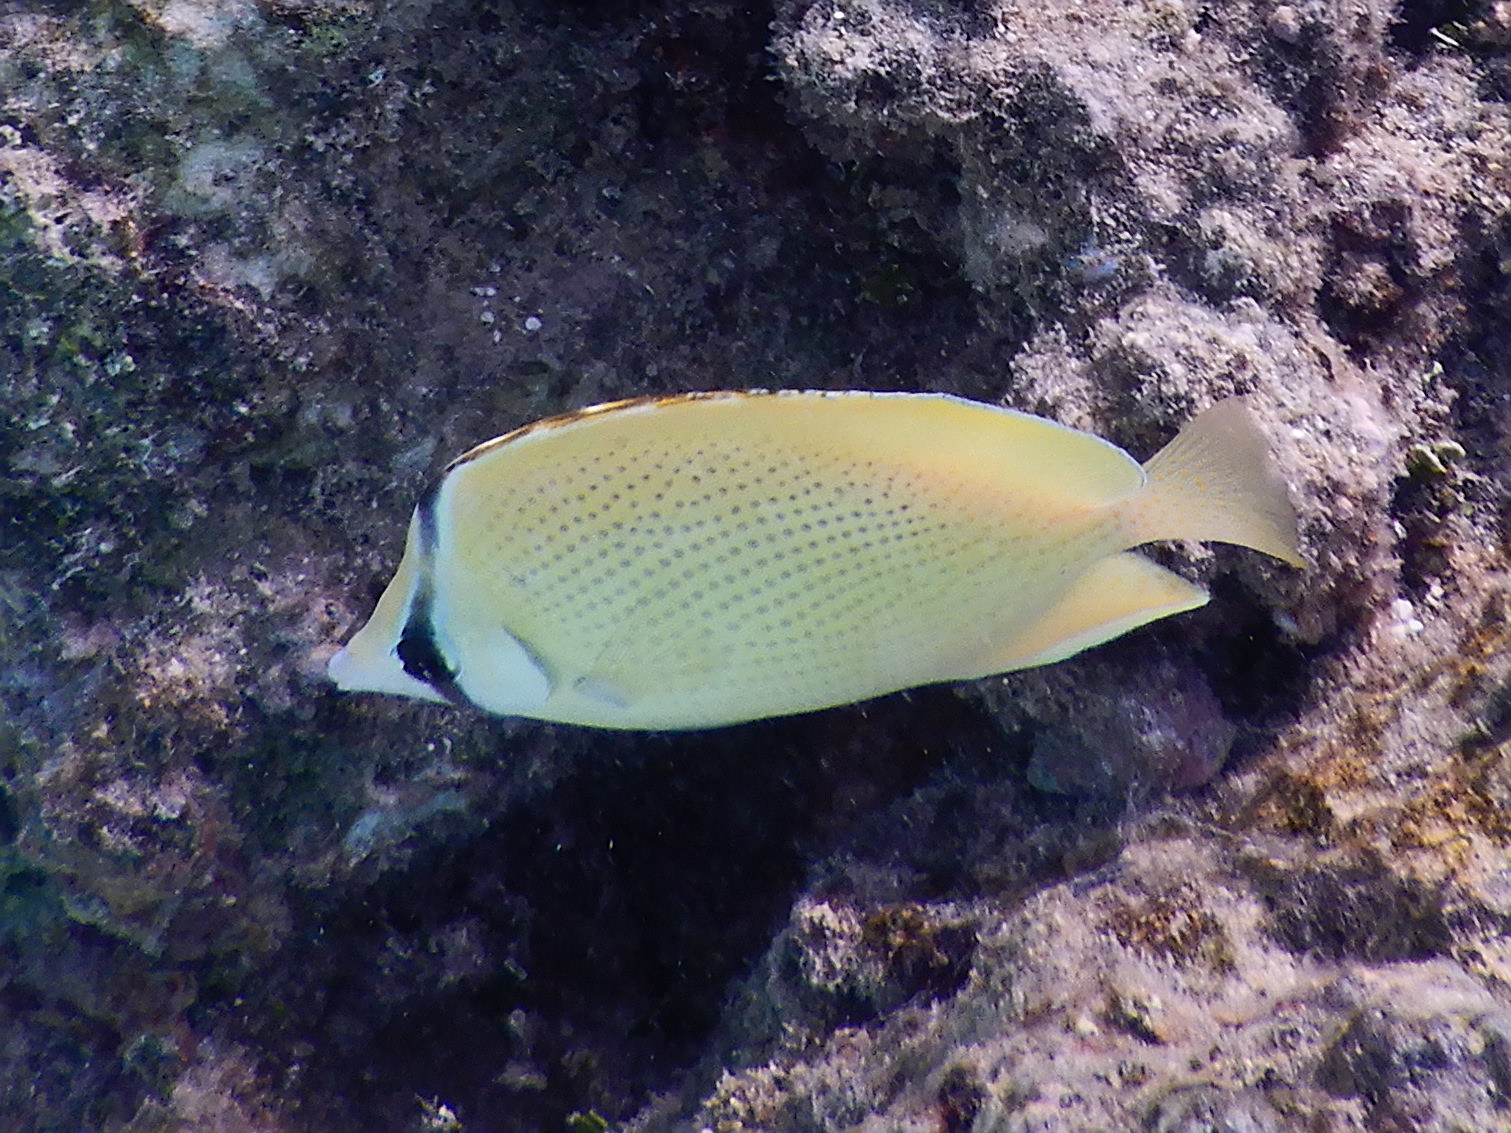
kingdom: Animalia
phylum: Chordata
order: Perciformes
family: Chaetodontidae
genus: Chaetodon
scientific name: Chaetodon citrinellus
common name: Speckled butterflyfish
